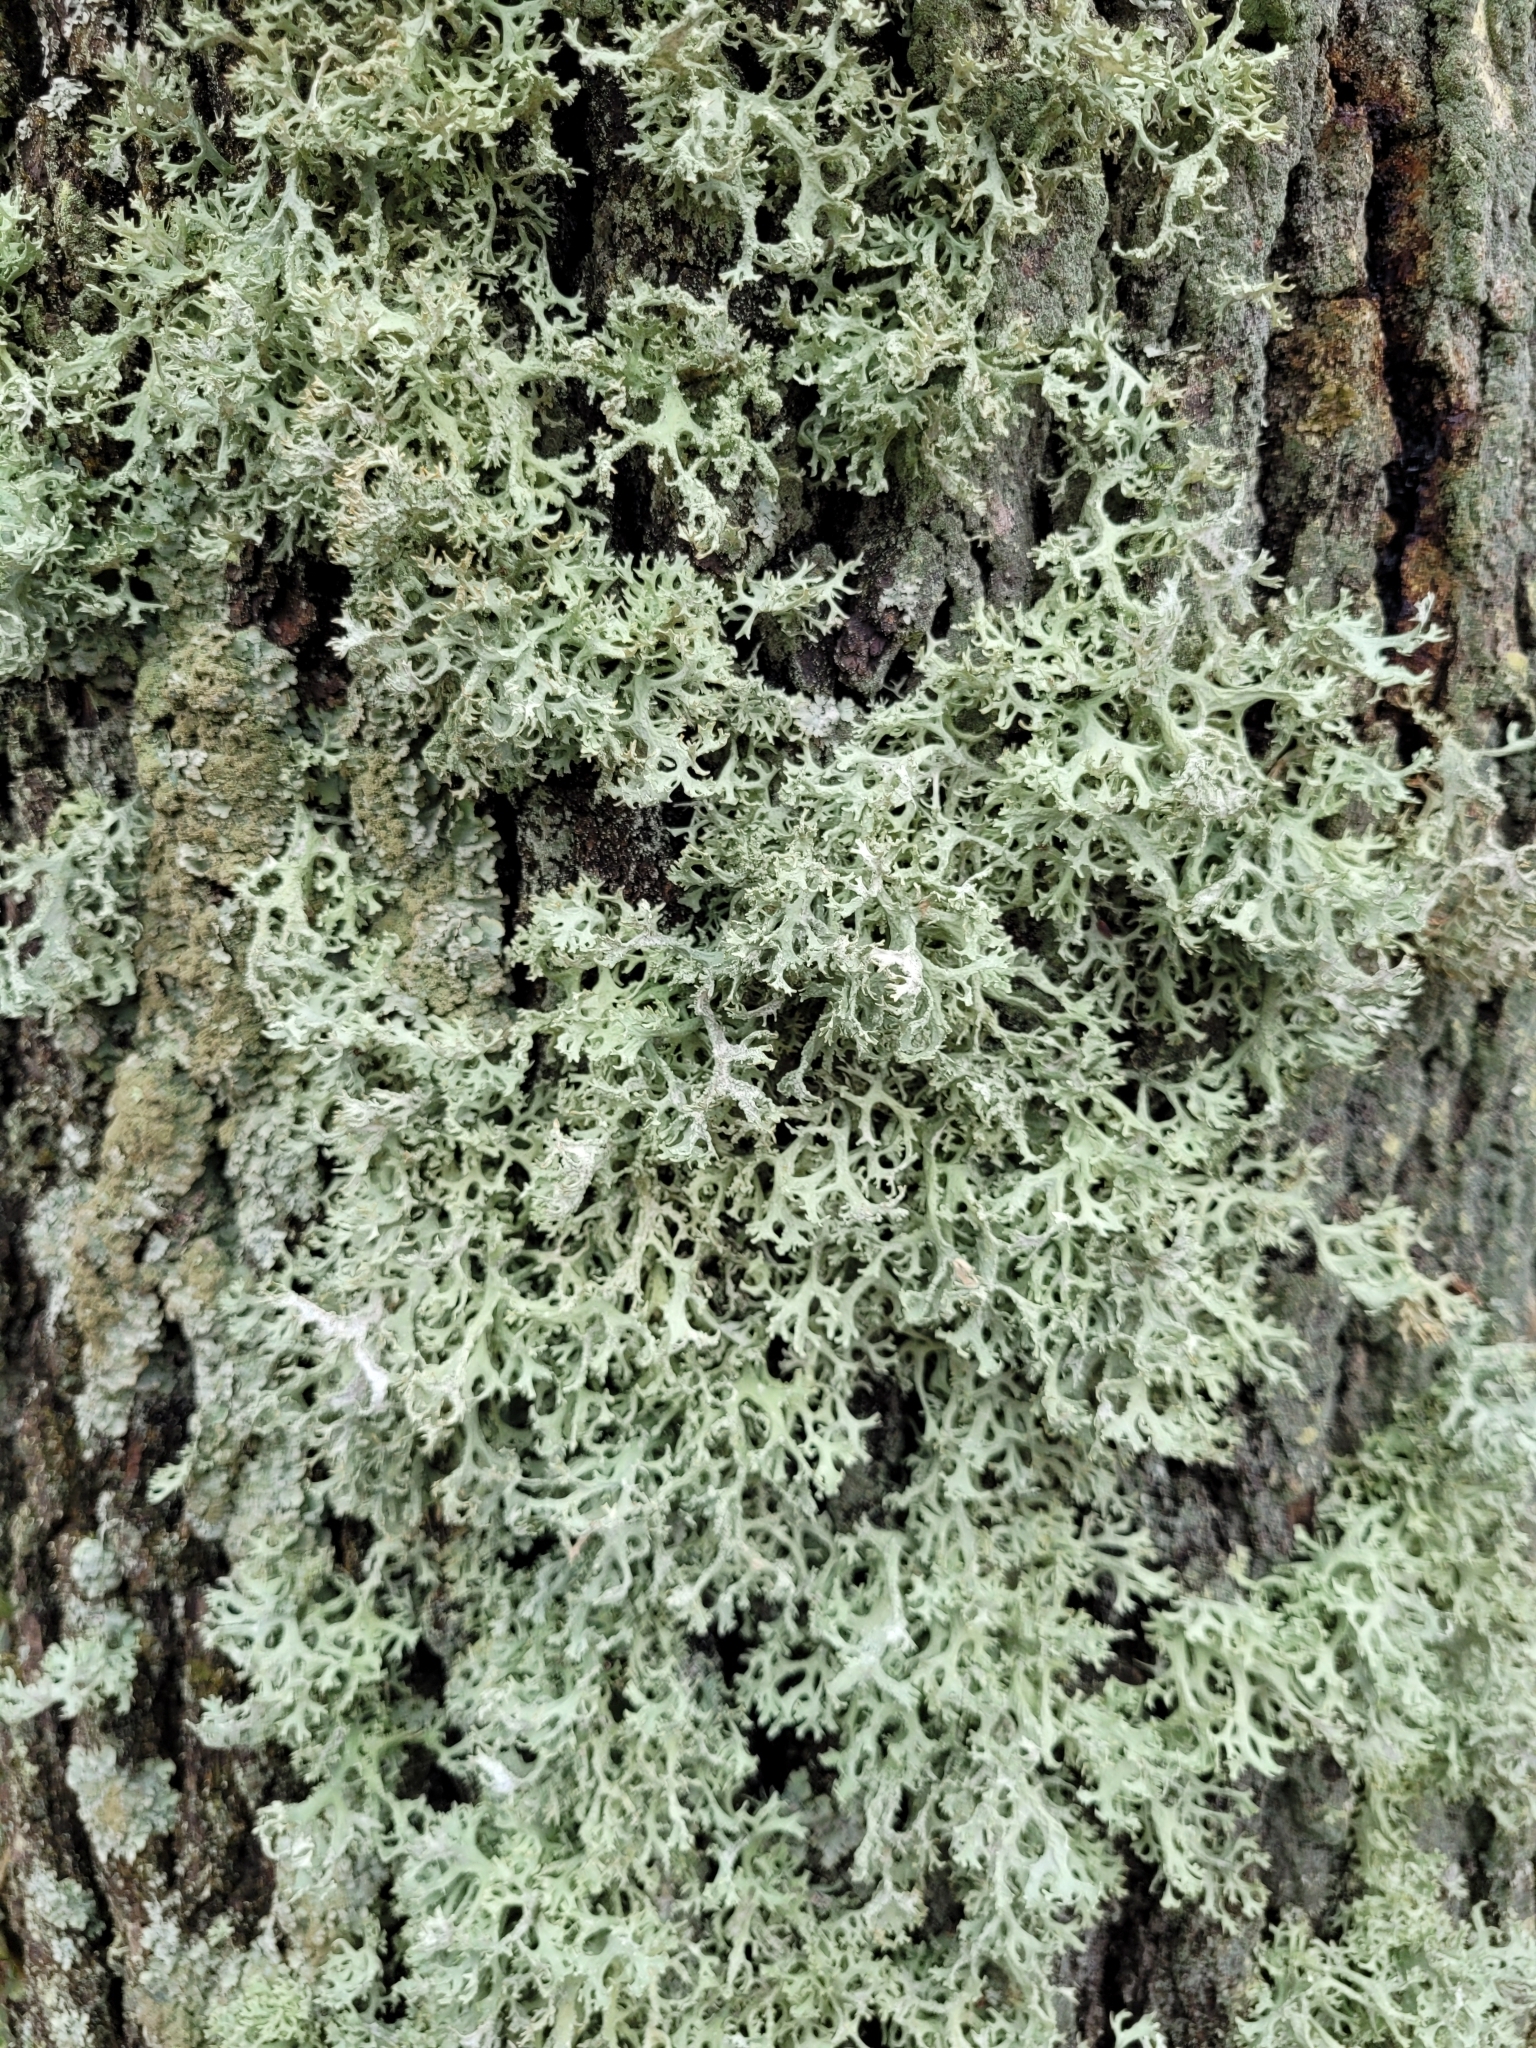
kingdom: Fungi
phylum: Ascomycota
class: Lecanoromycetes
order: Lecanorales
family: Parmeliaceae
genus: Evernia
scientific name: Evernia prunastri
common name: Oak moss
